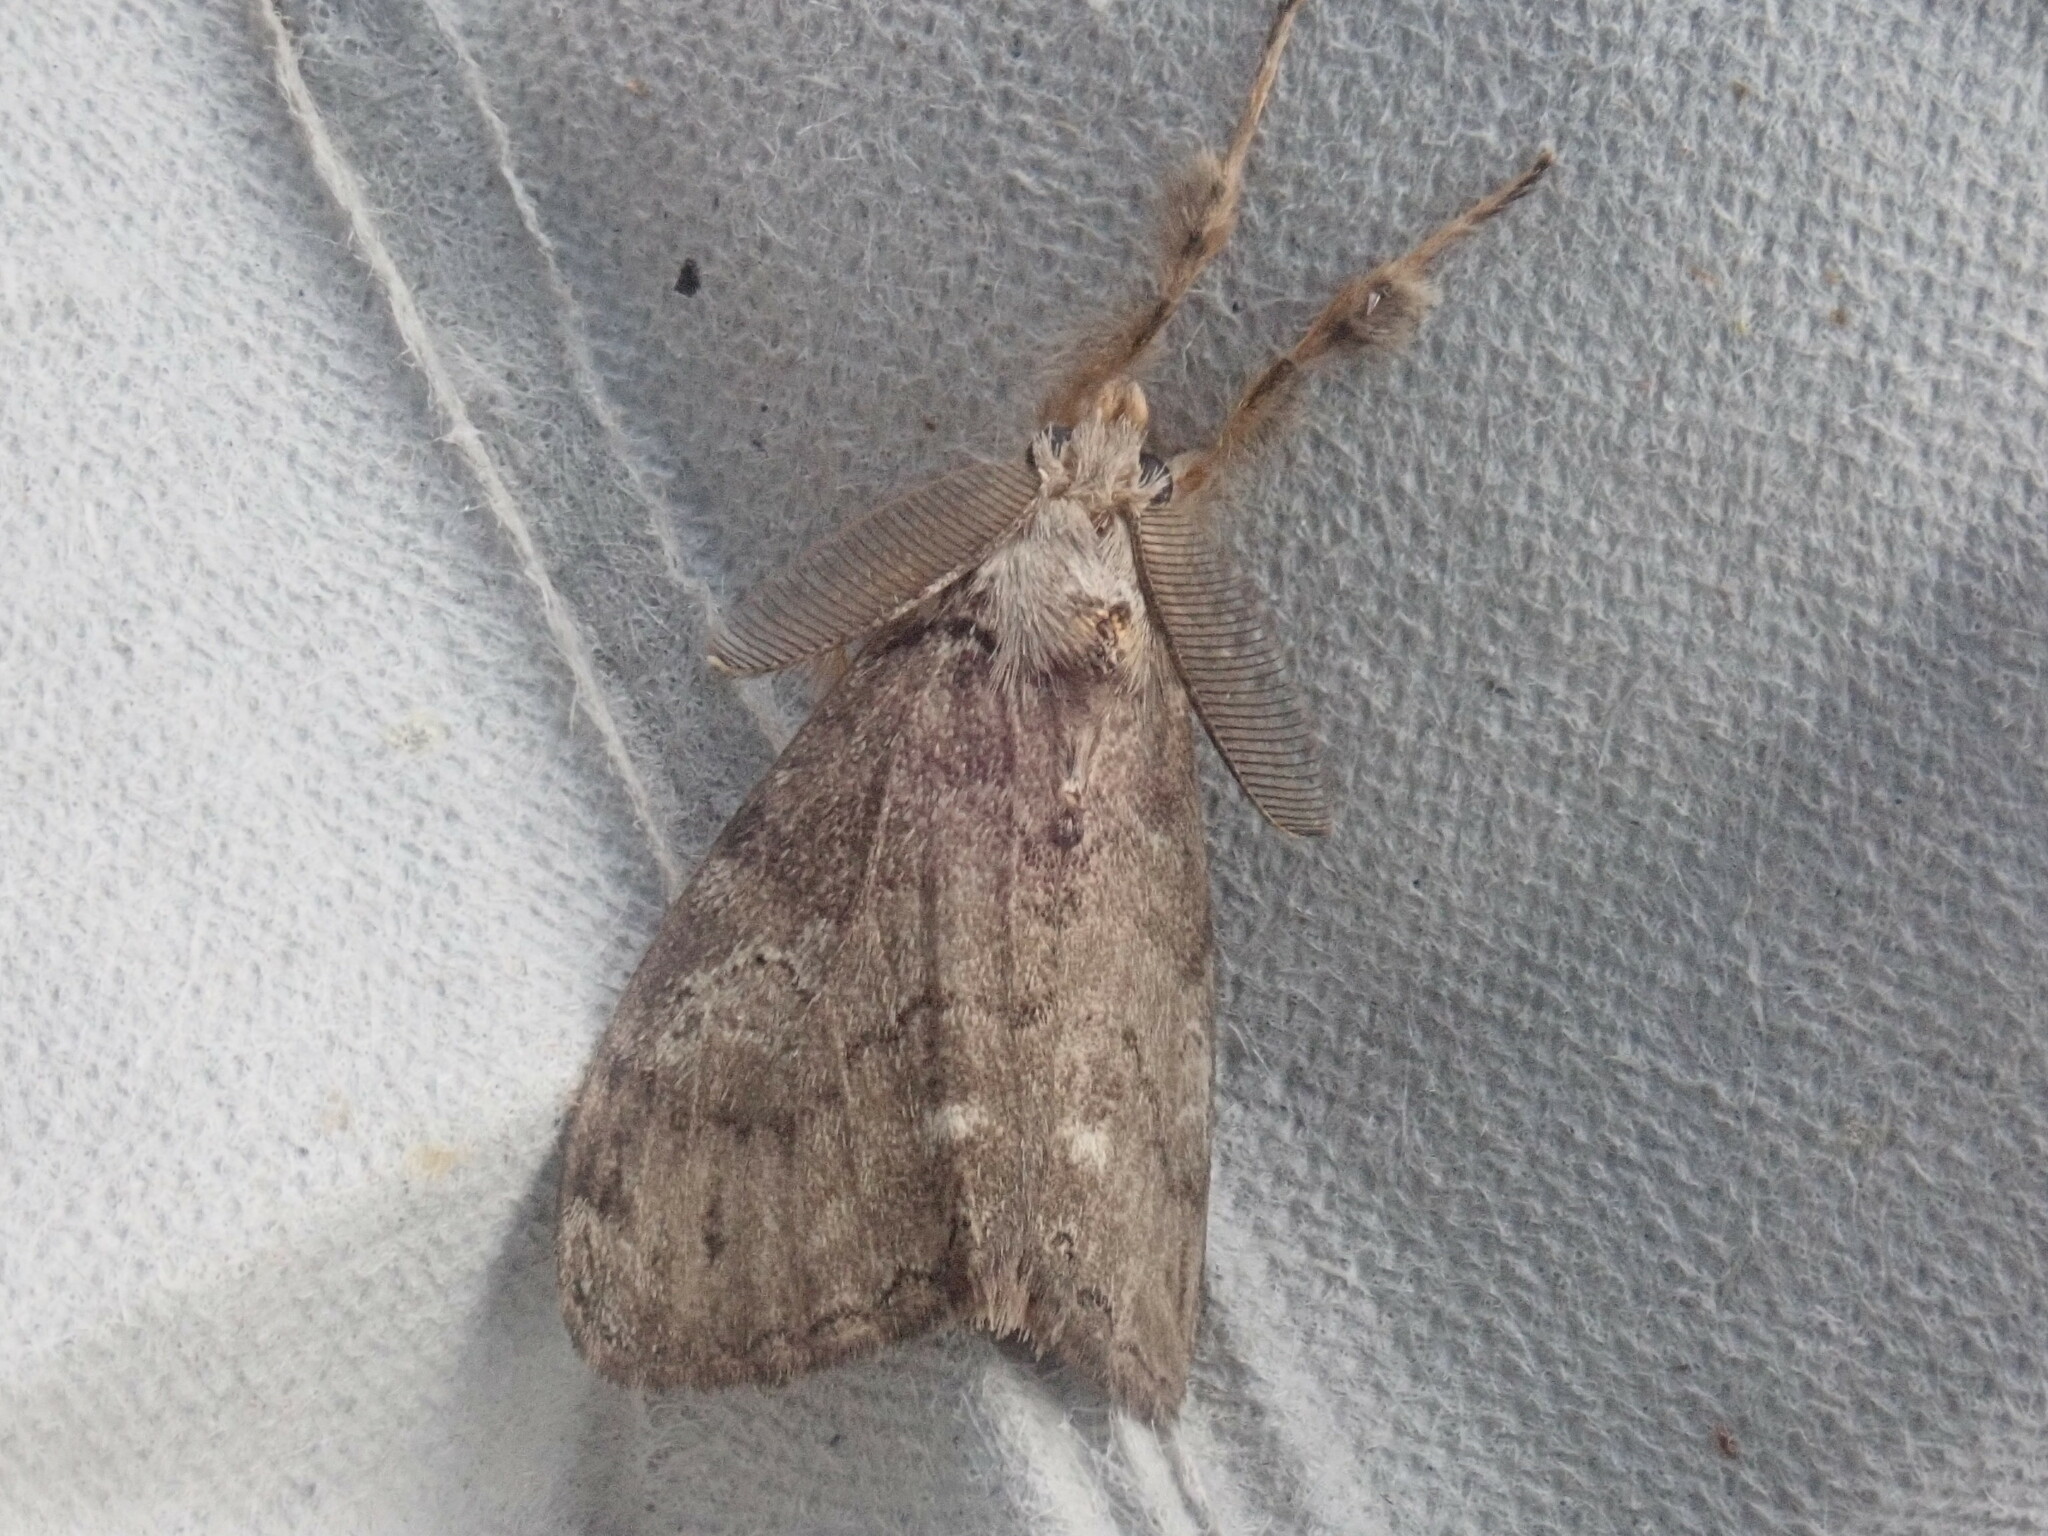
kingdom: Animalia
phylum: Arthropoda
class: Insecta
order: Lepidoptera
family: Erebidae
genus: Orgyia
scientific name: Orgyia leucostigma
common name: White-marked tussock moth
